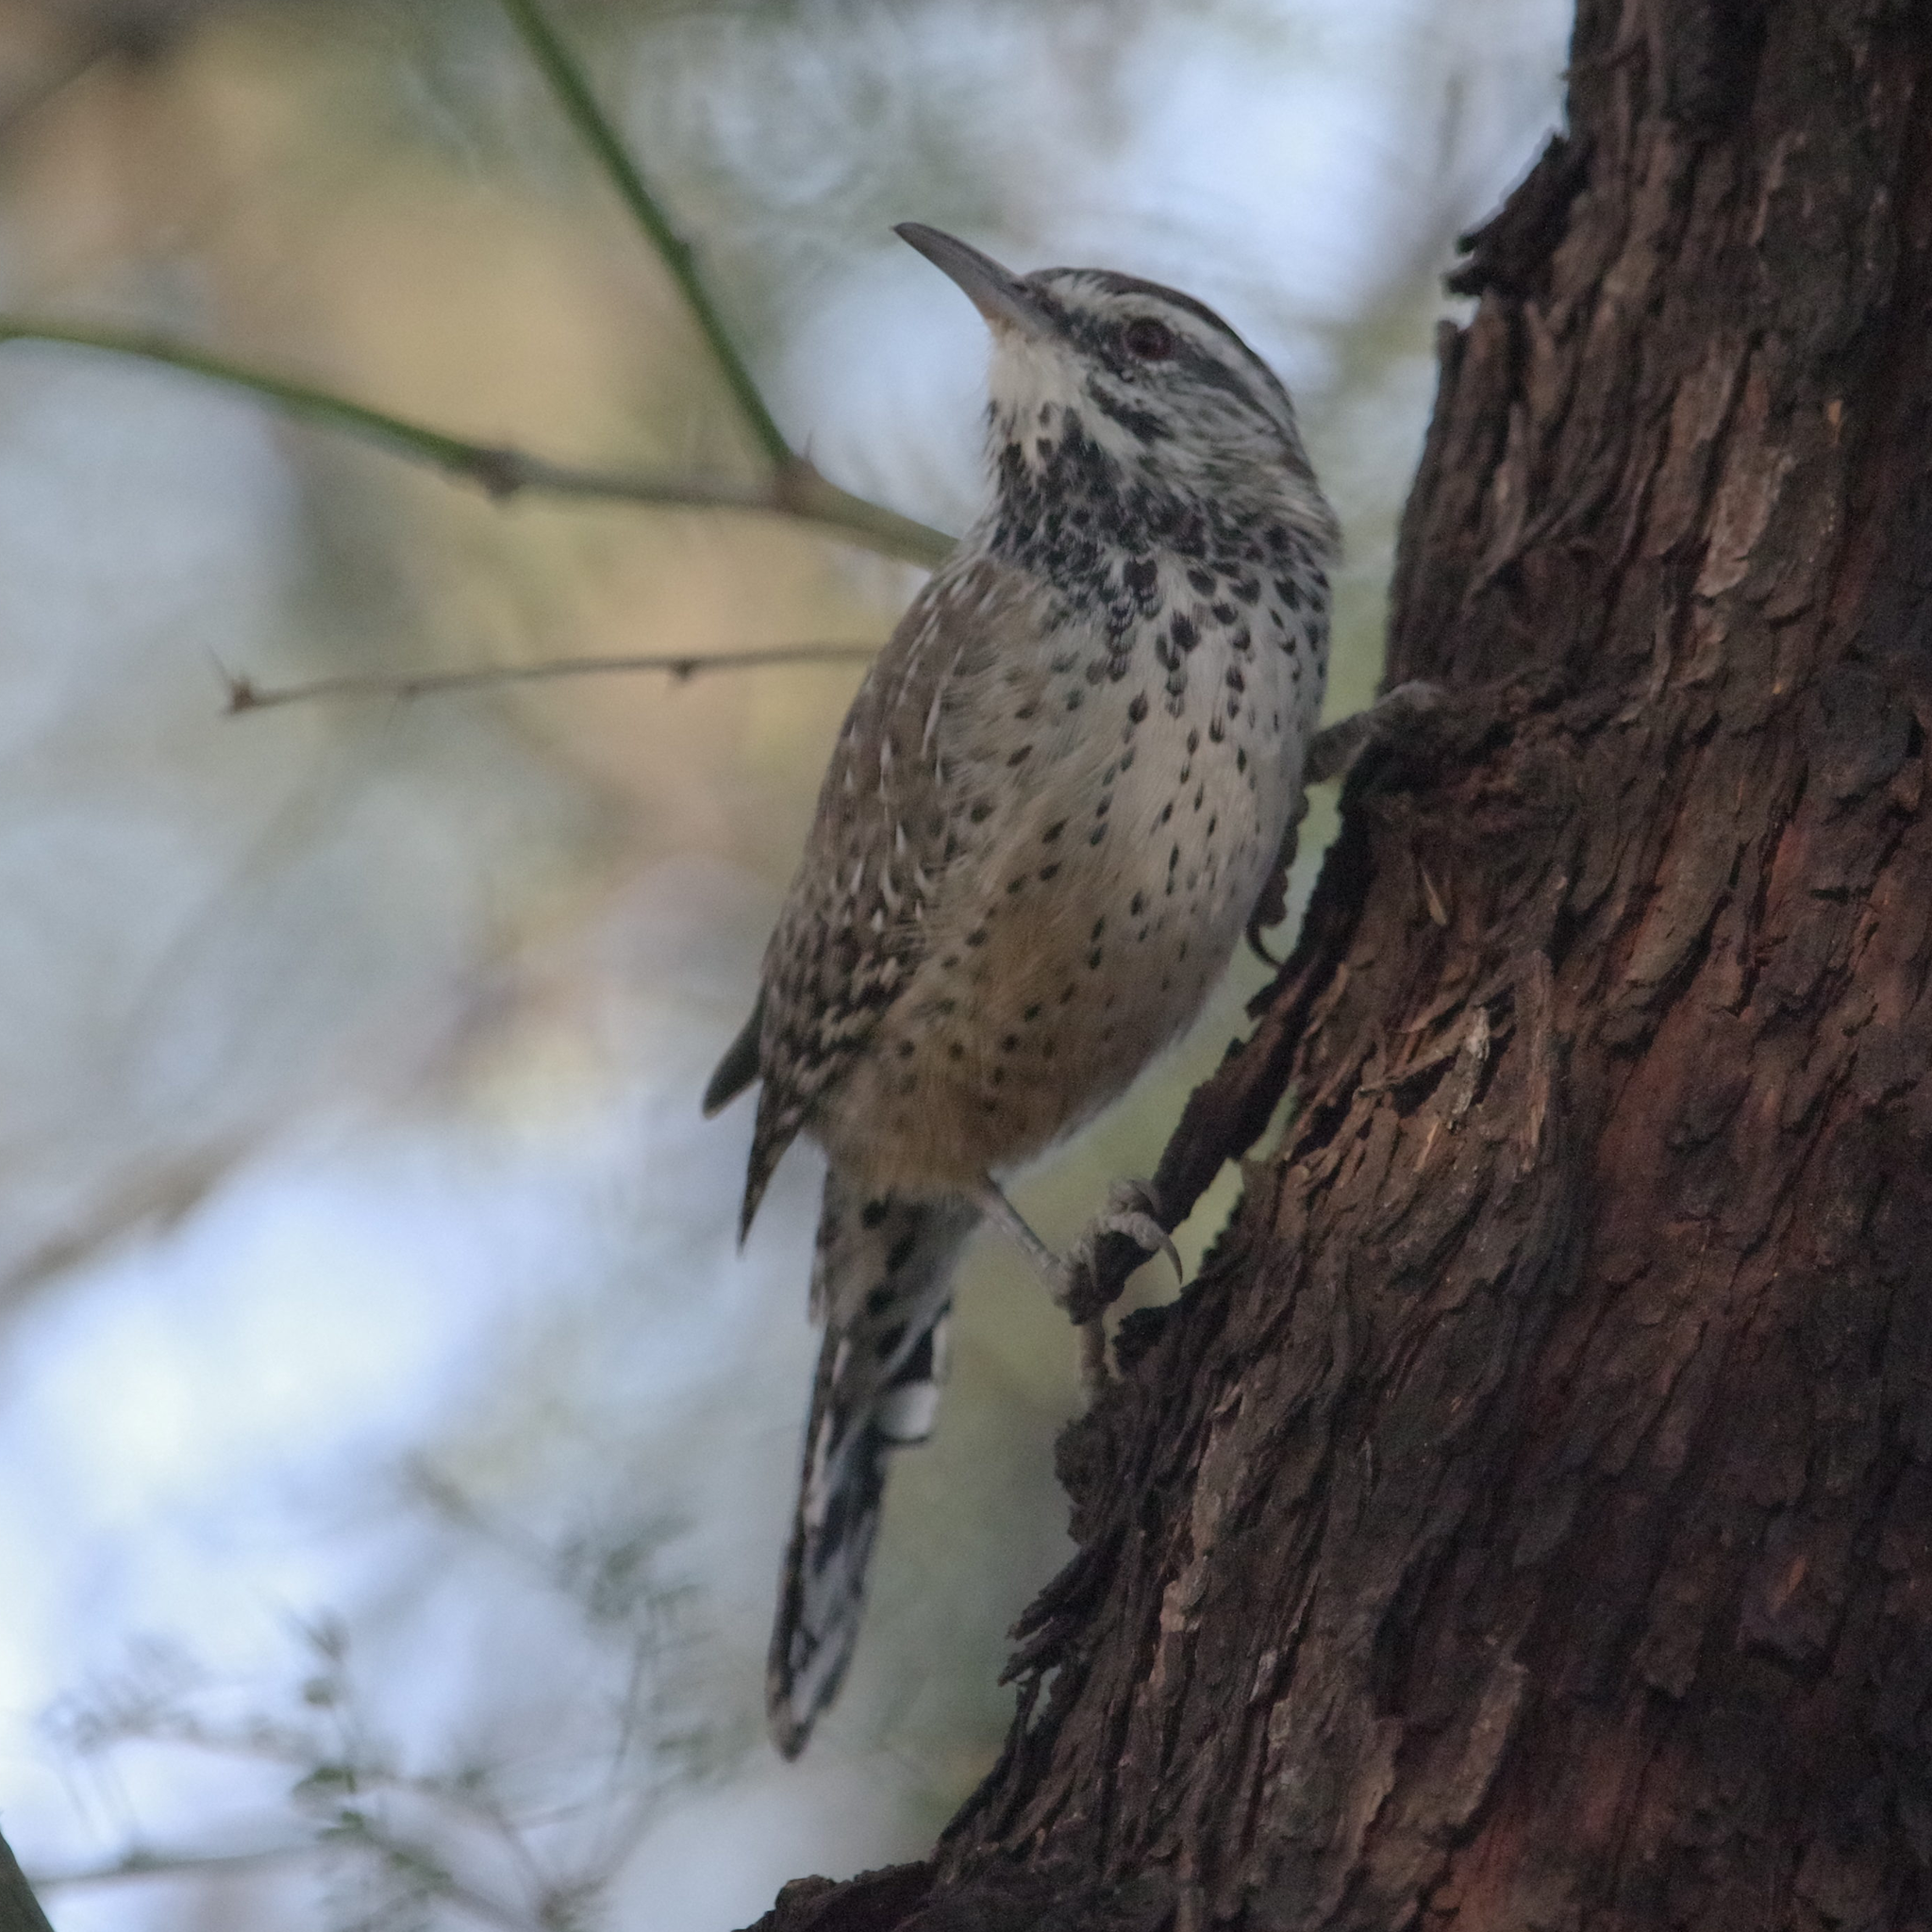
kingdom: Animalia
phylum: Chordata
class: Aves
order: Passeriformes
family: Troglodytidae
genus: Campylorhynchus
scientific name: Campylorhynchus brunneicapillus
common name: Cactus wren
